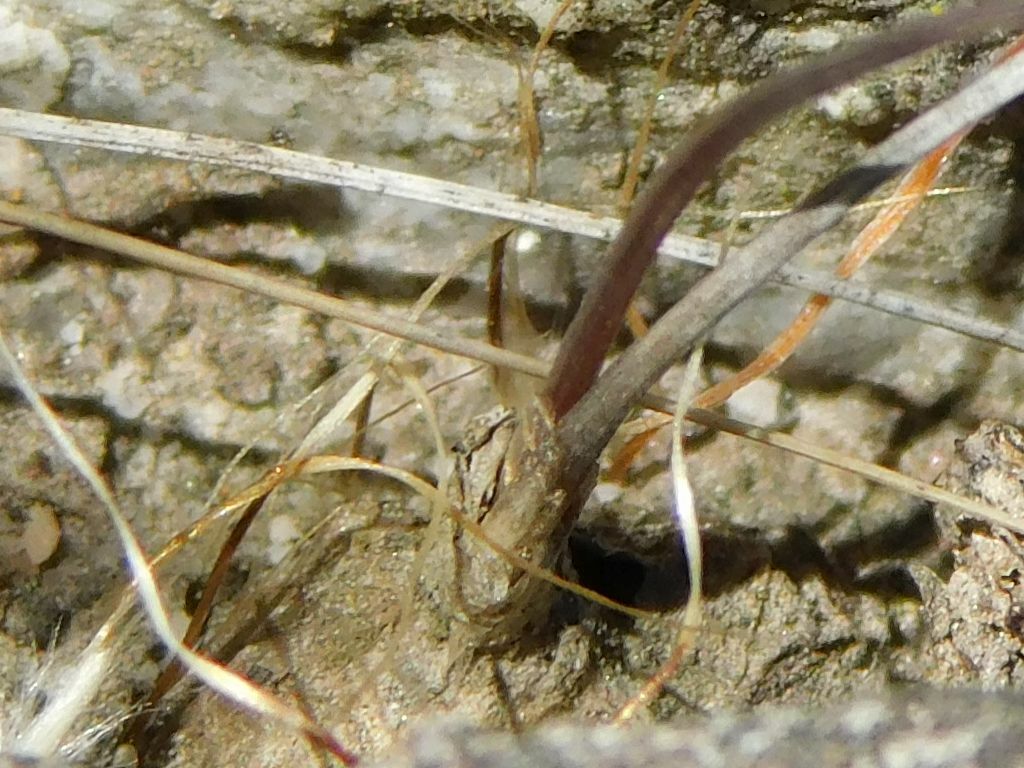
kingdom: Plantae
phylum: Tracheophyta
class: Liliopsida
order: Asparagales
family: Asparagaceae
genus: Fusifilum
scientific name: Fusifilum physodes
